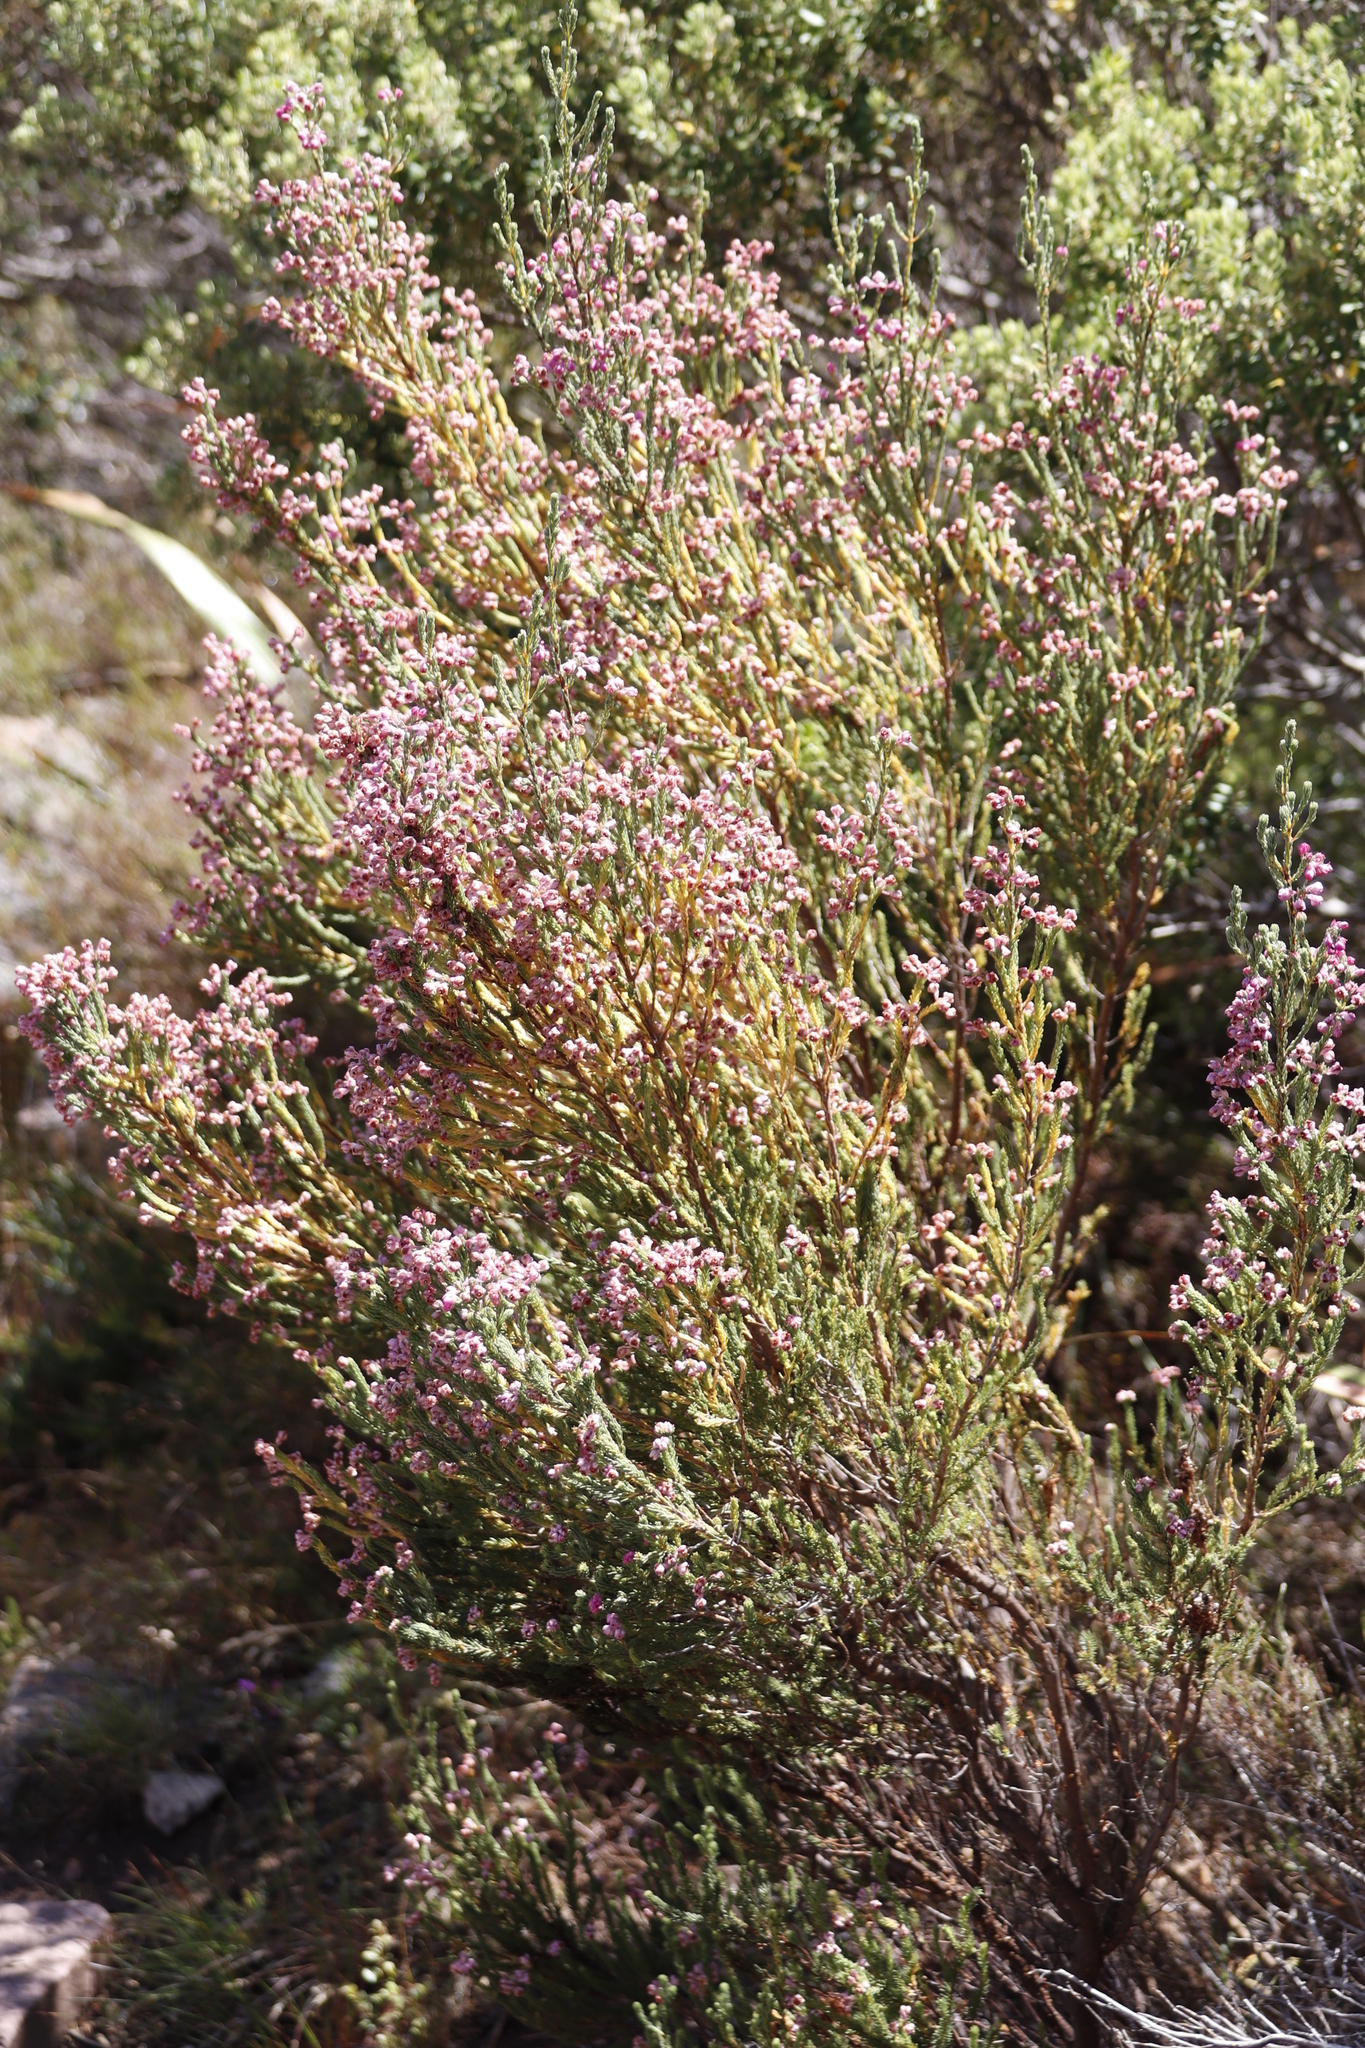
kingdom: Plantae
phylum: Tracheophyta
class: Magnoliopsida
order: Ericales
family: Ericaceae
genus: Erica
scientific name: Erica baccans
